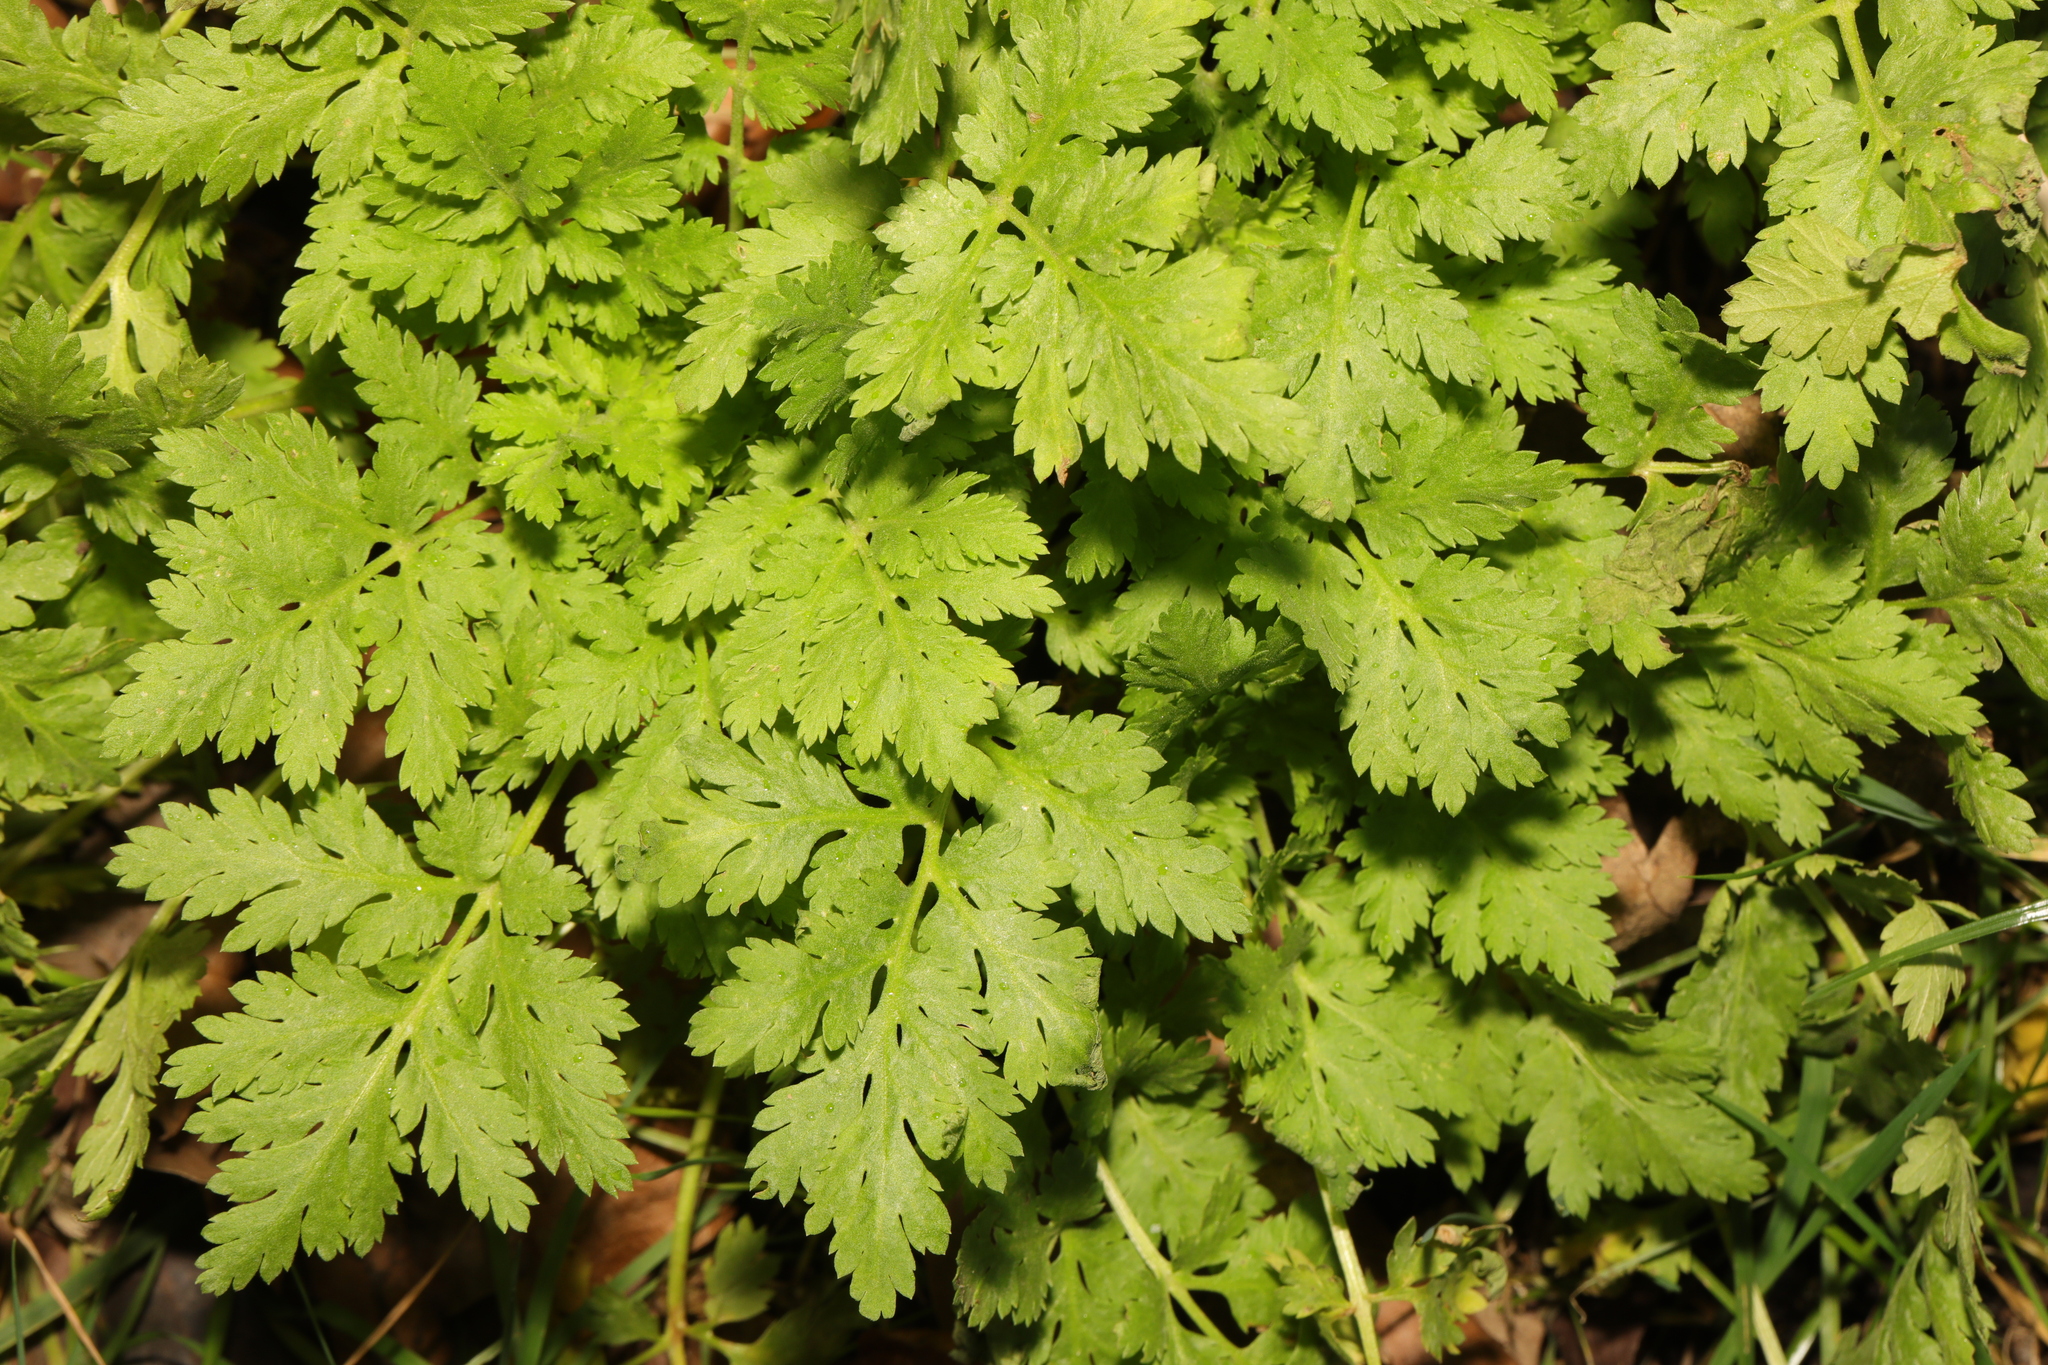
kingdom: Plantae
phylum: Tracheophyta
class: Magnoliopsida
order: Asterales
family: Asteraceae
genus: Tanacetum
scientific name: Tanacetum parthenium
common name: Feverfew
